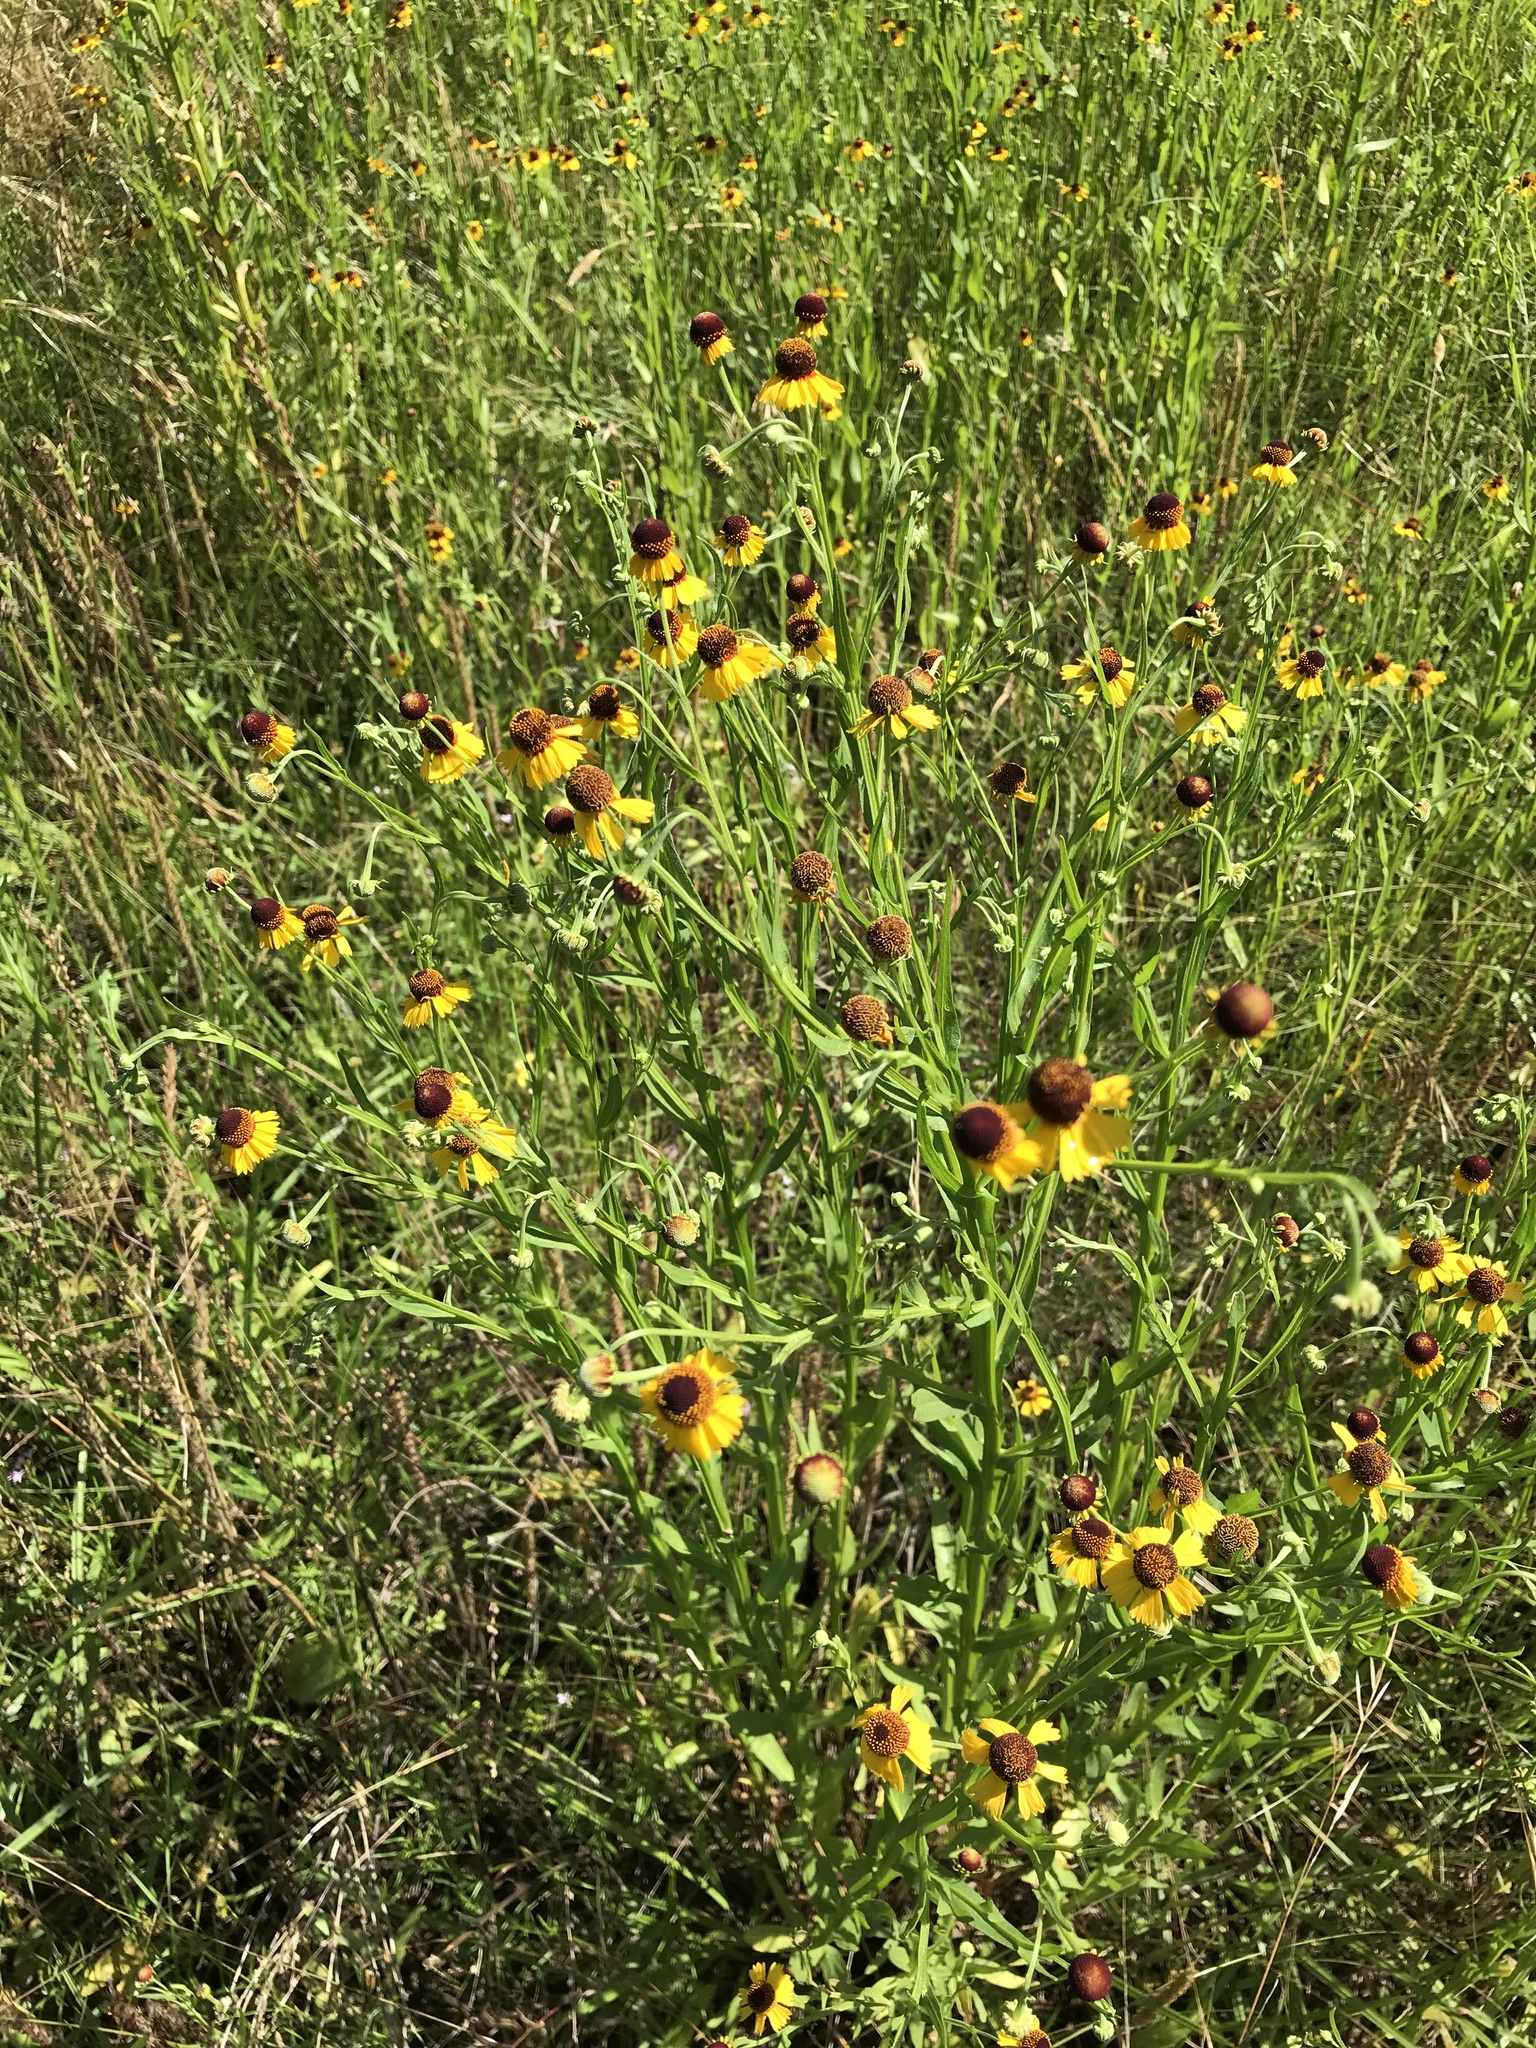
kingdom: Plantae
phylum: Tracheophyta
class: Magnoliopsida
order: Asterales
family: Asteraceae
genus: Helenium
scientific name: Helenium elegans
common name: Pretty sneezeweed
